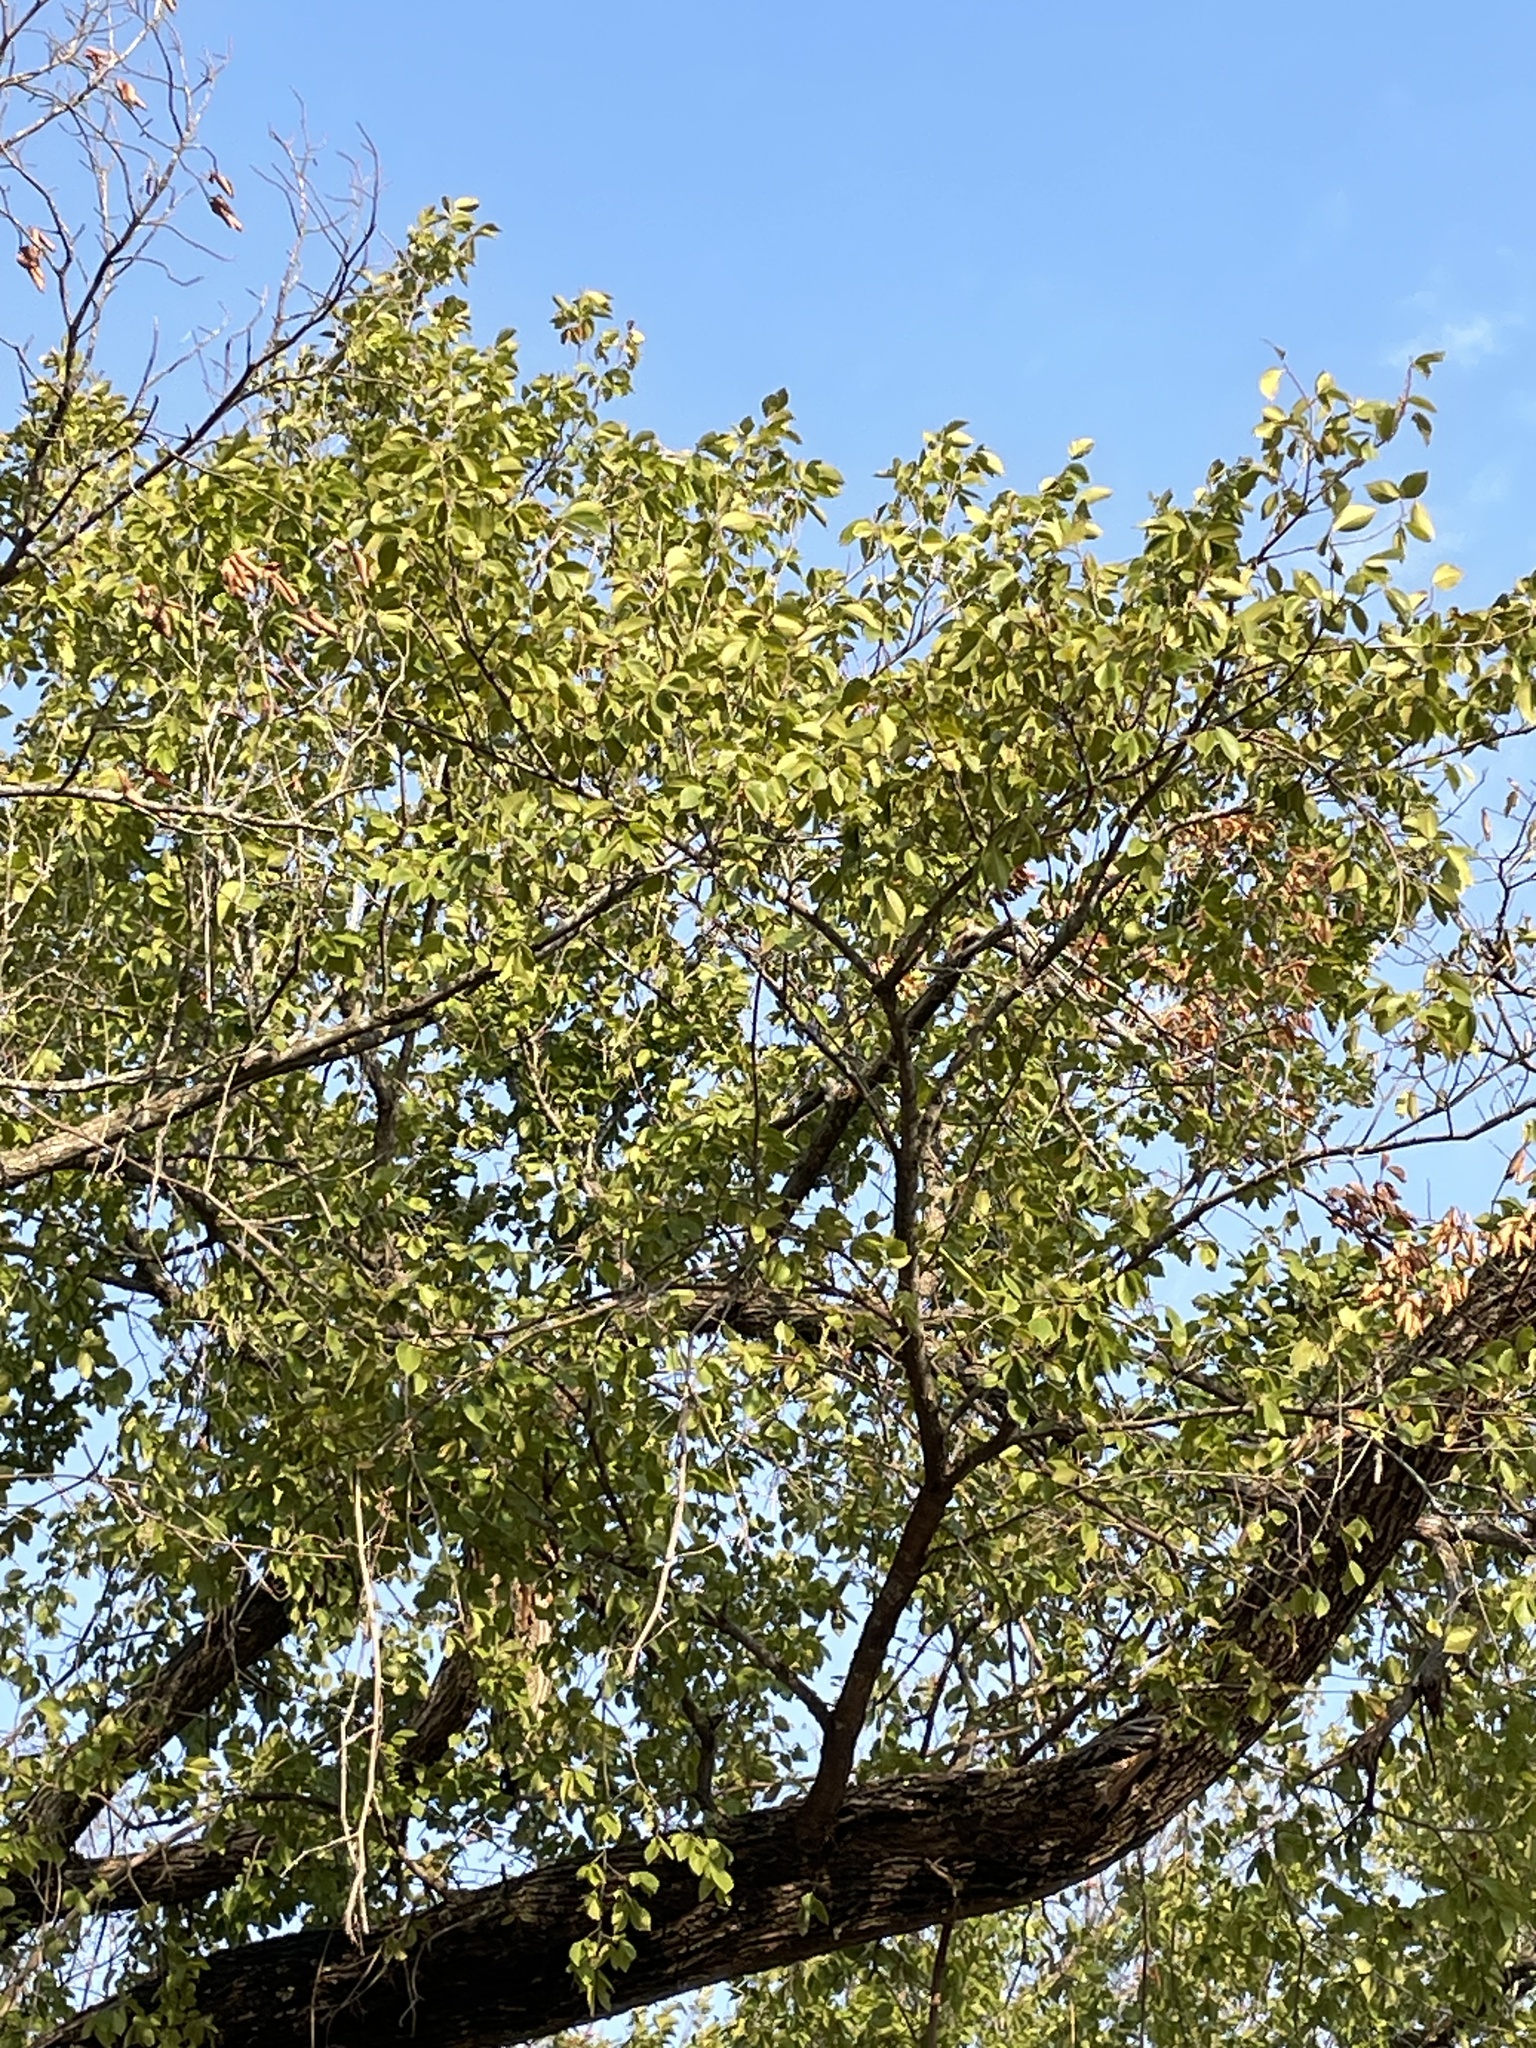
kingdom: Plantae
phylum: Tracheophyta
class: Magnoliopsida
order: Rosales
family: Ulmaceae
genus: Ulmus
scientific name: Ulmus americana
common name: American elm
